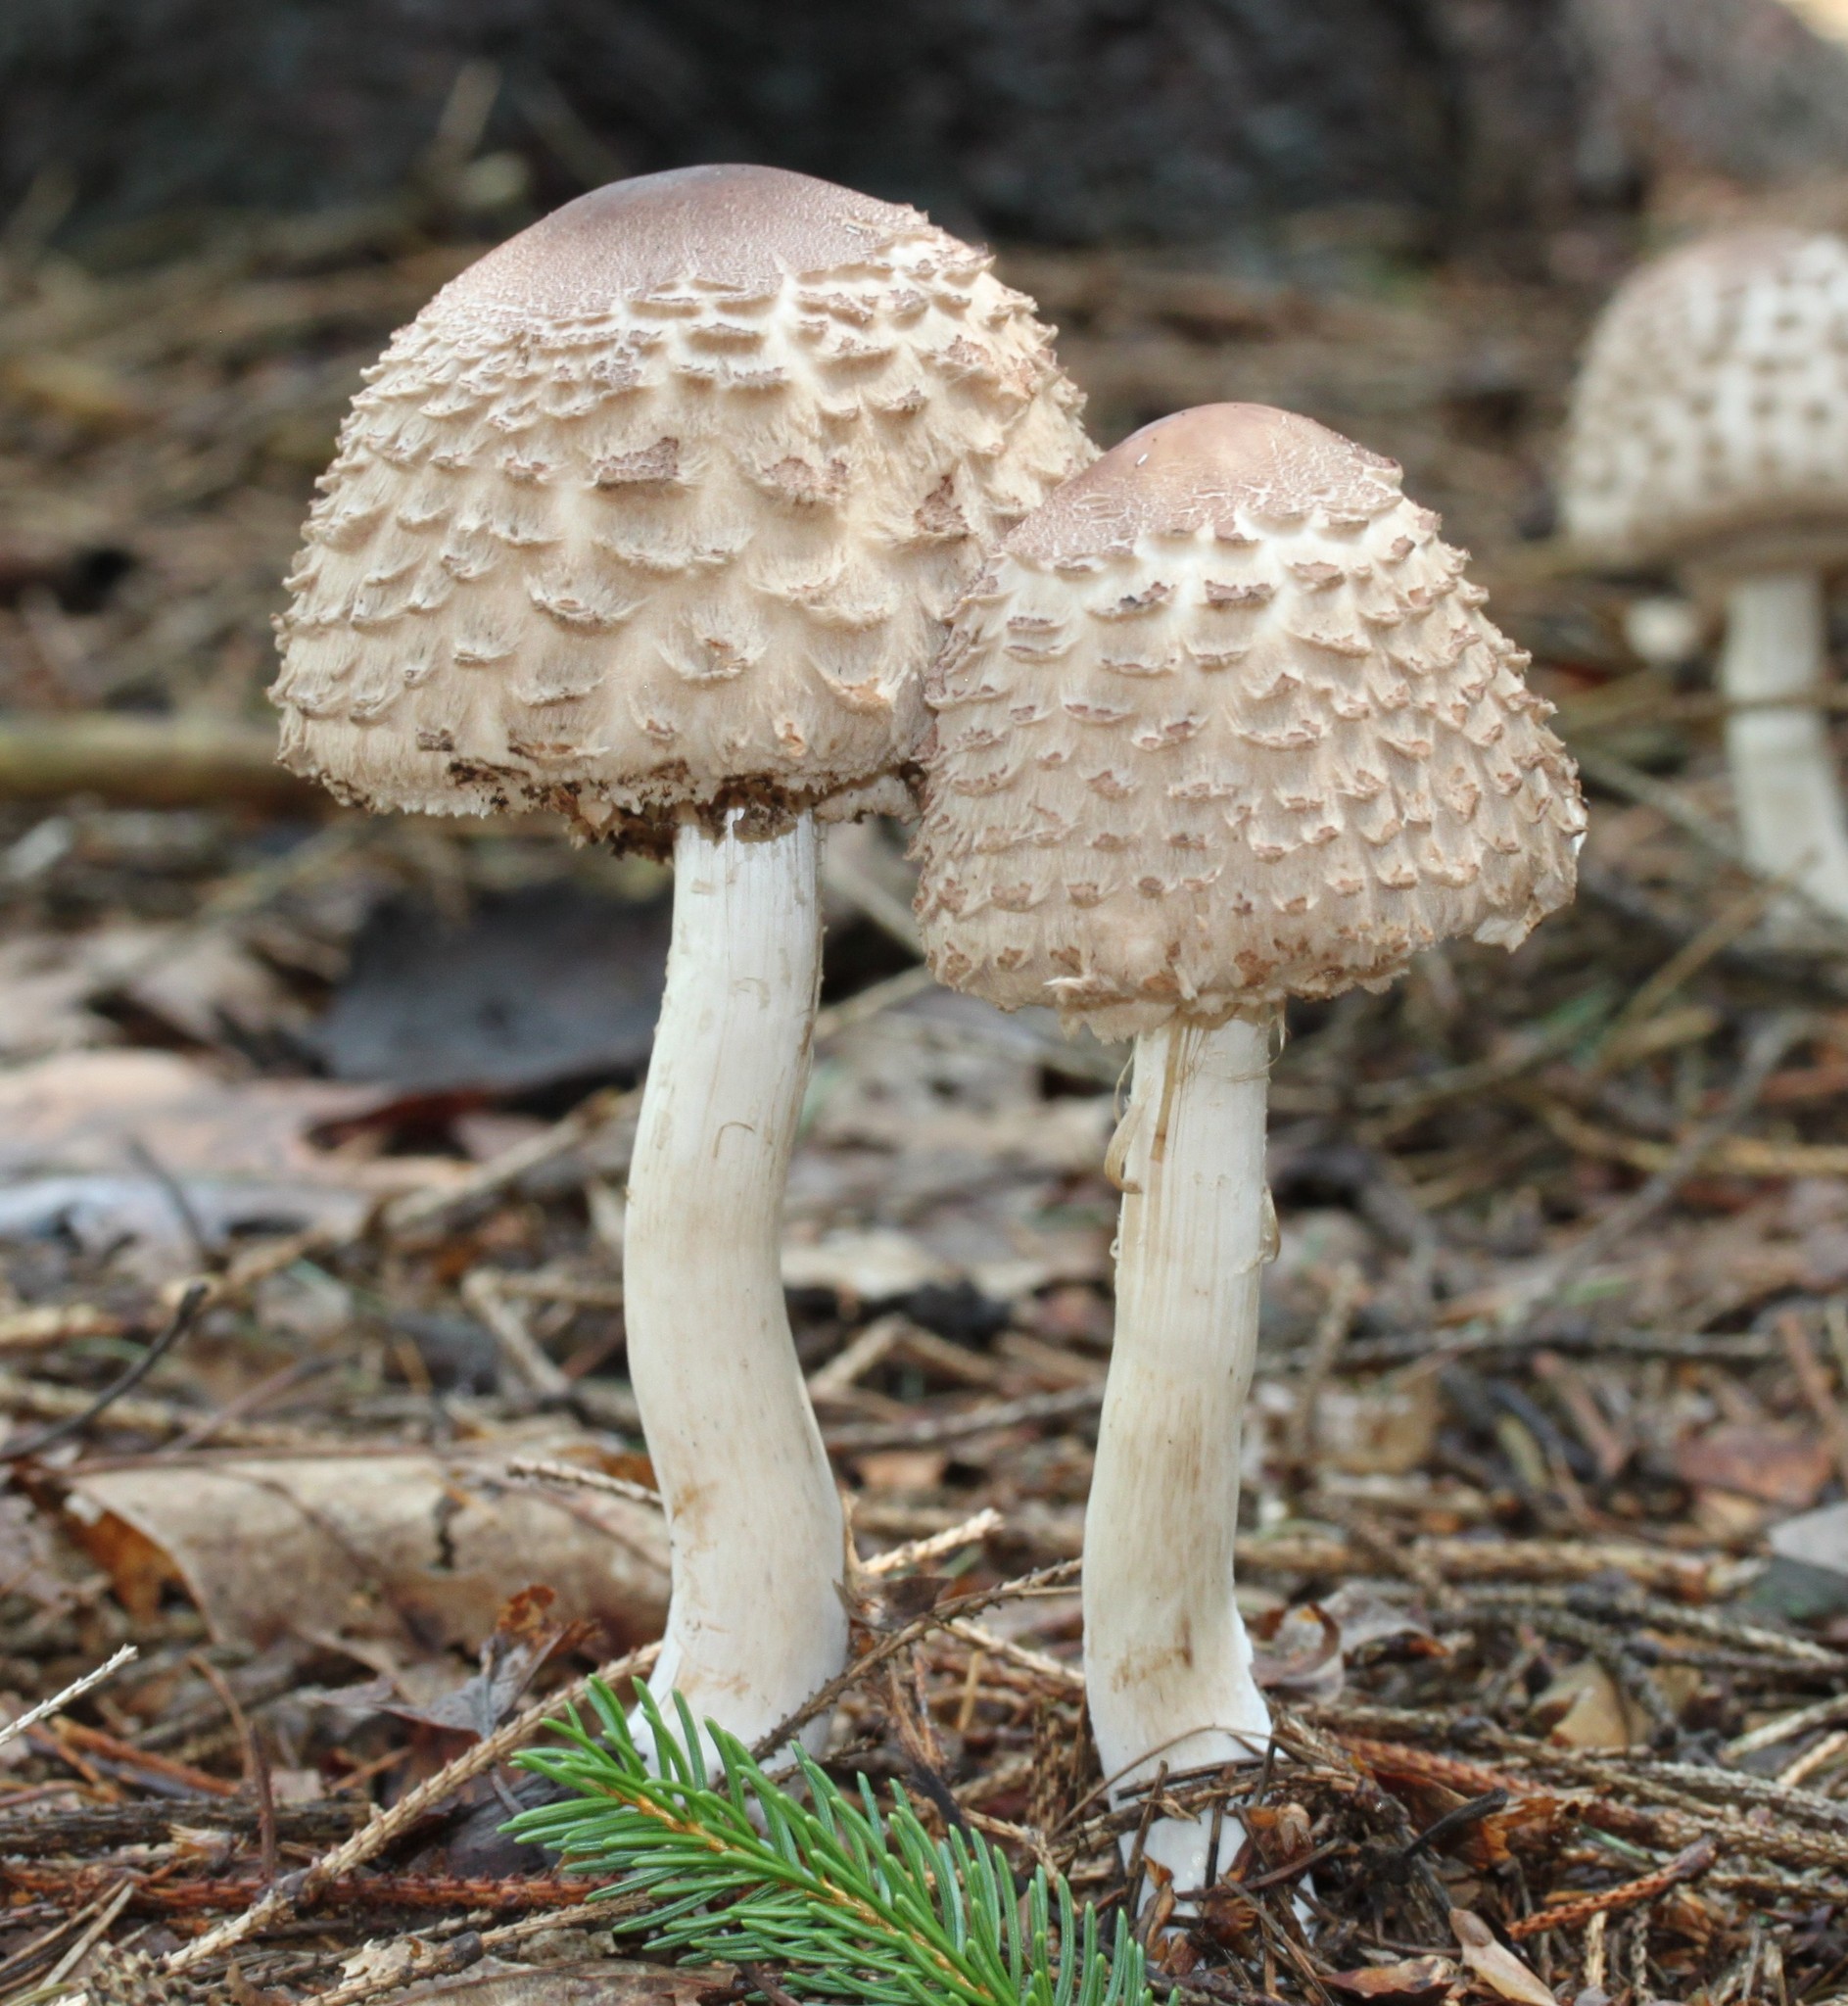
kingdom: Fungi
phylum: Basidiomycota
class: Agaricomycetes
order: Agaricales
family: Agaricaceae
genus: Chlorophyllum
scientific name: Chlorophyllum rhacodes
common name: Shaggy parasol
